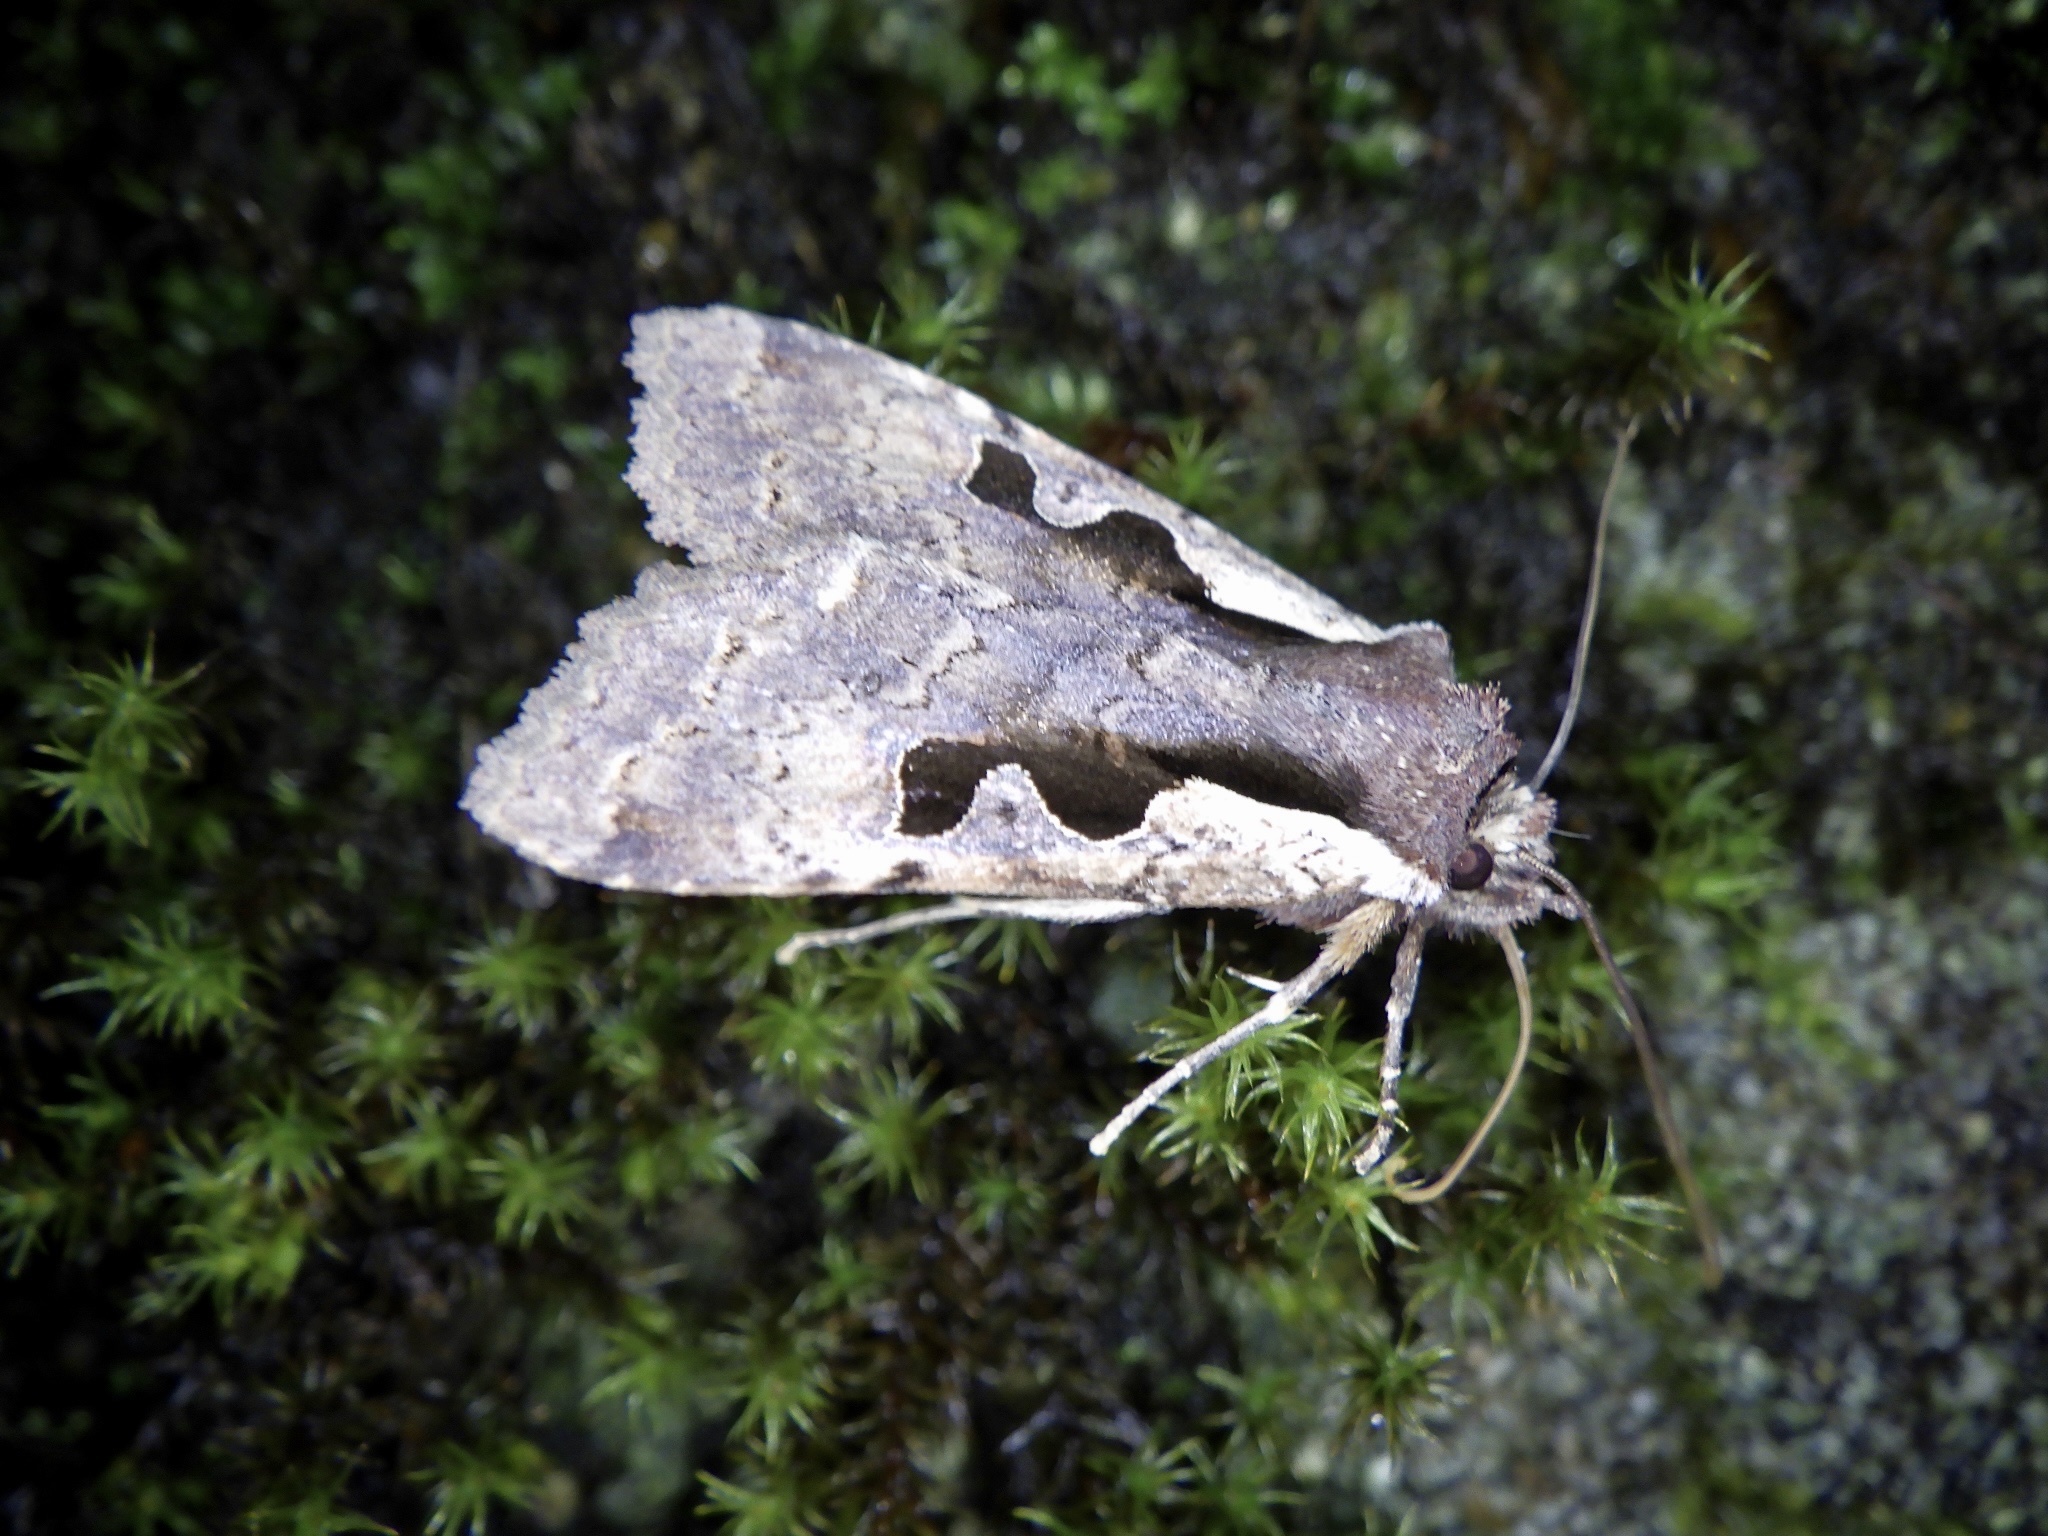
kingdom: Animalia
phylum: Arthropoda
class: Insecta
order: Lepidoptera
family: Noctuidae
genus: Sugitania
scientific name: Sugitania lepida
